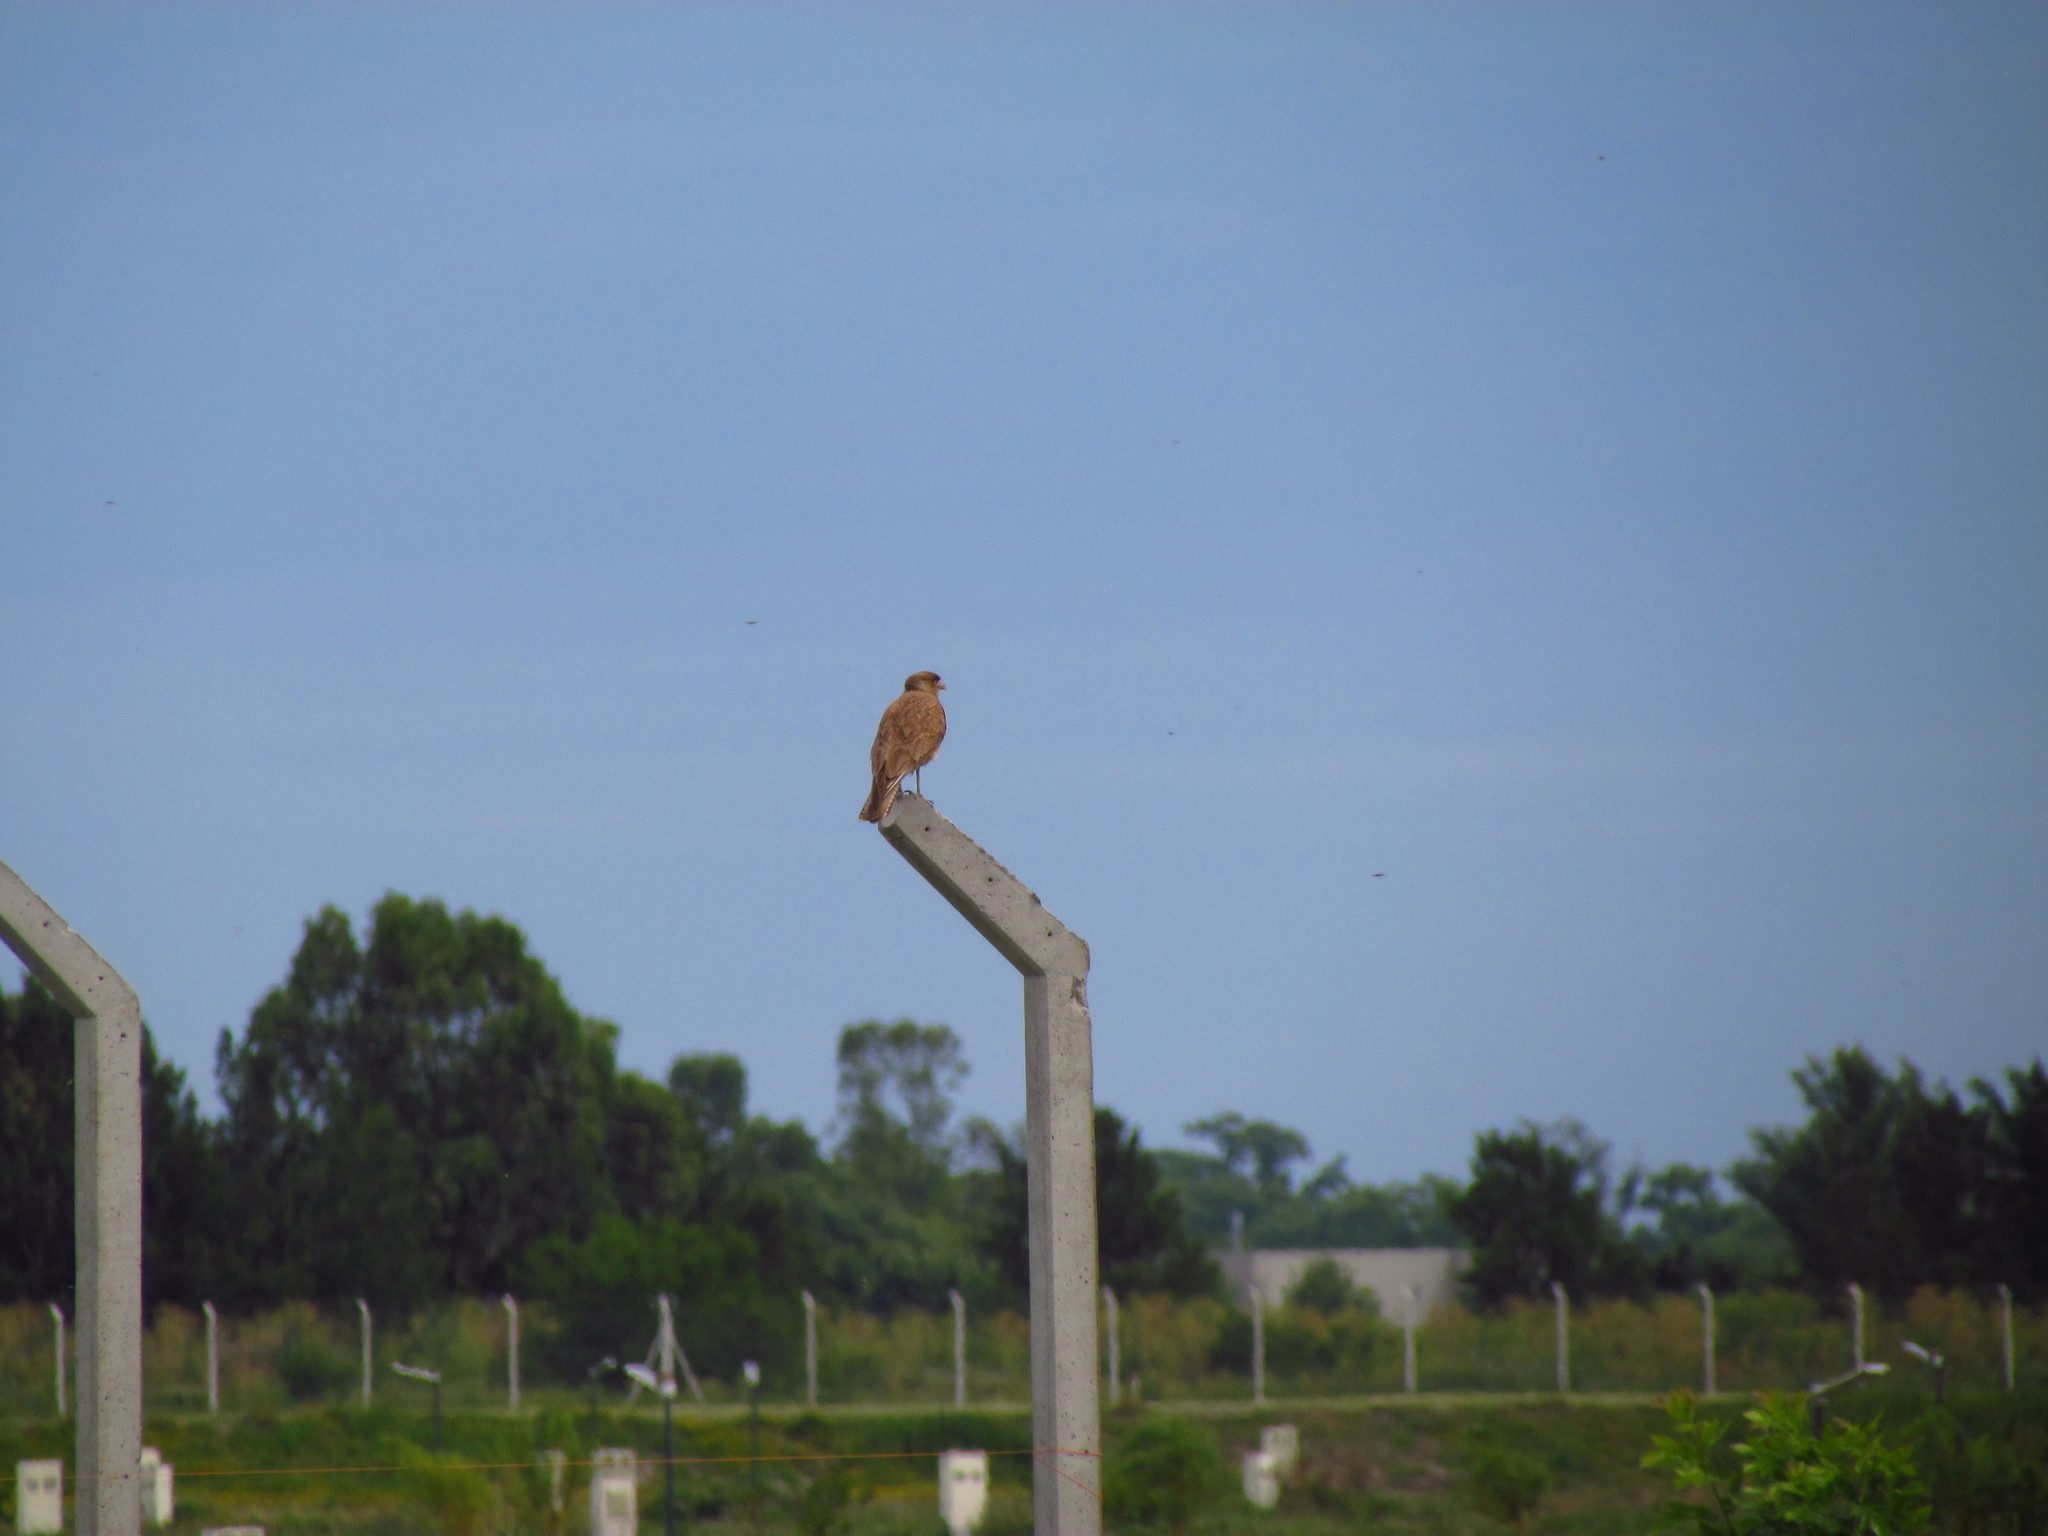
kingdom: Animalia
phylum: Chordata
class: Aves
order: Falconiformes
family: Falconidae
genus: Daptrius
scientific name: Daptrius
